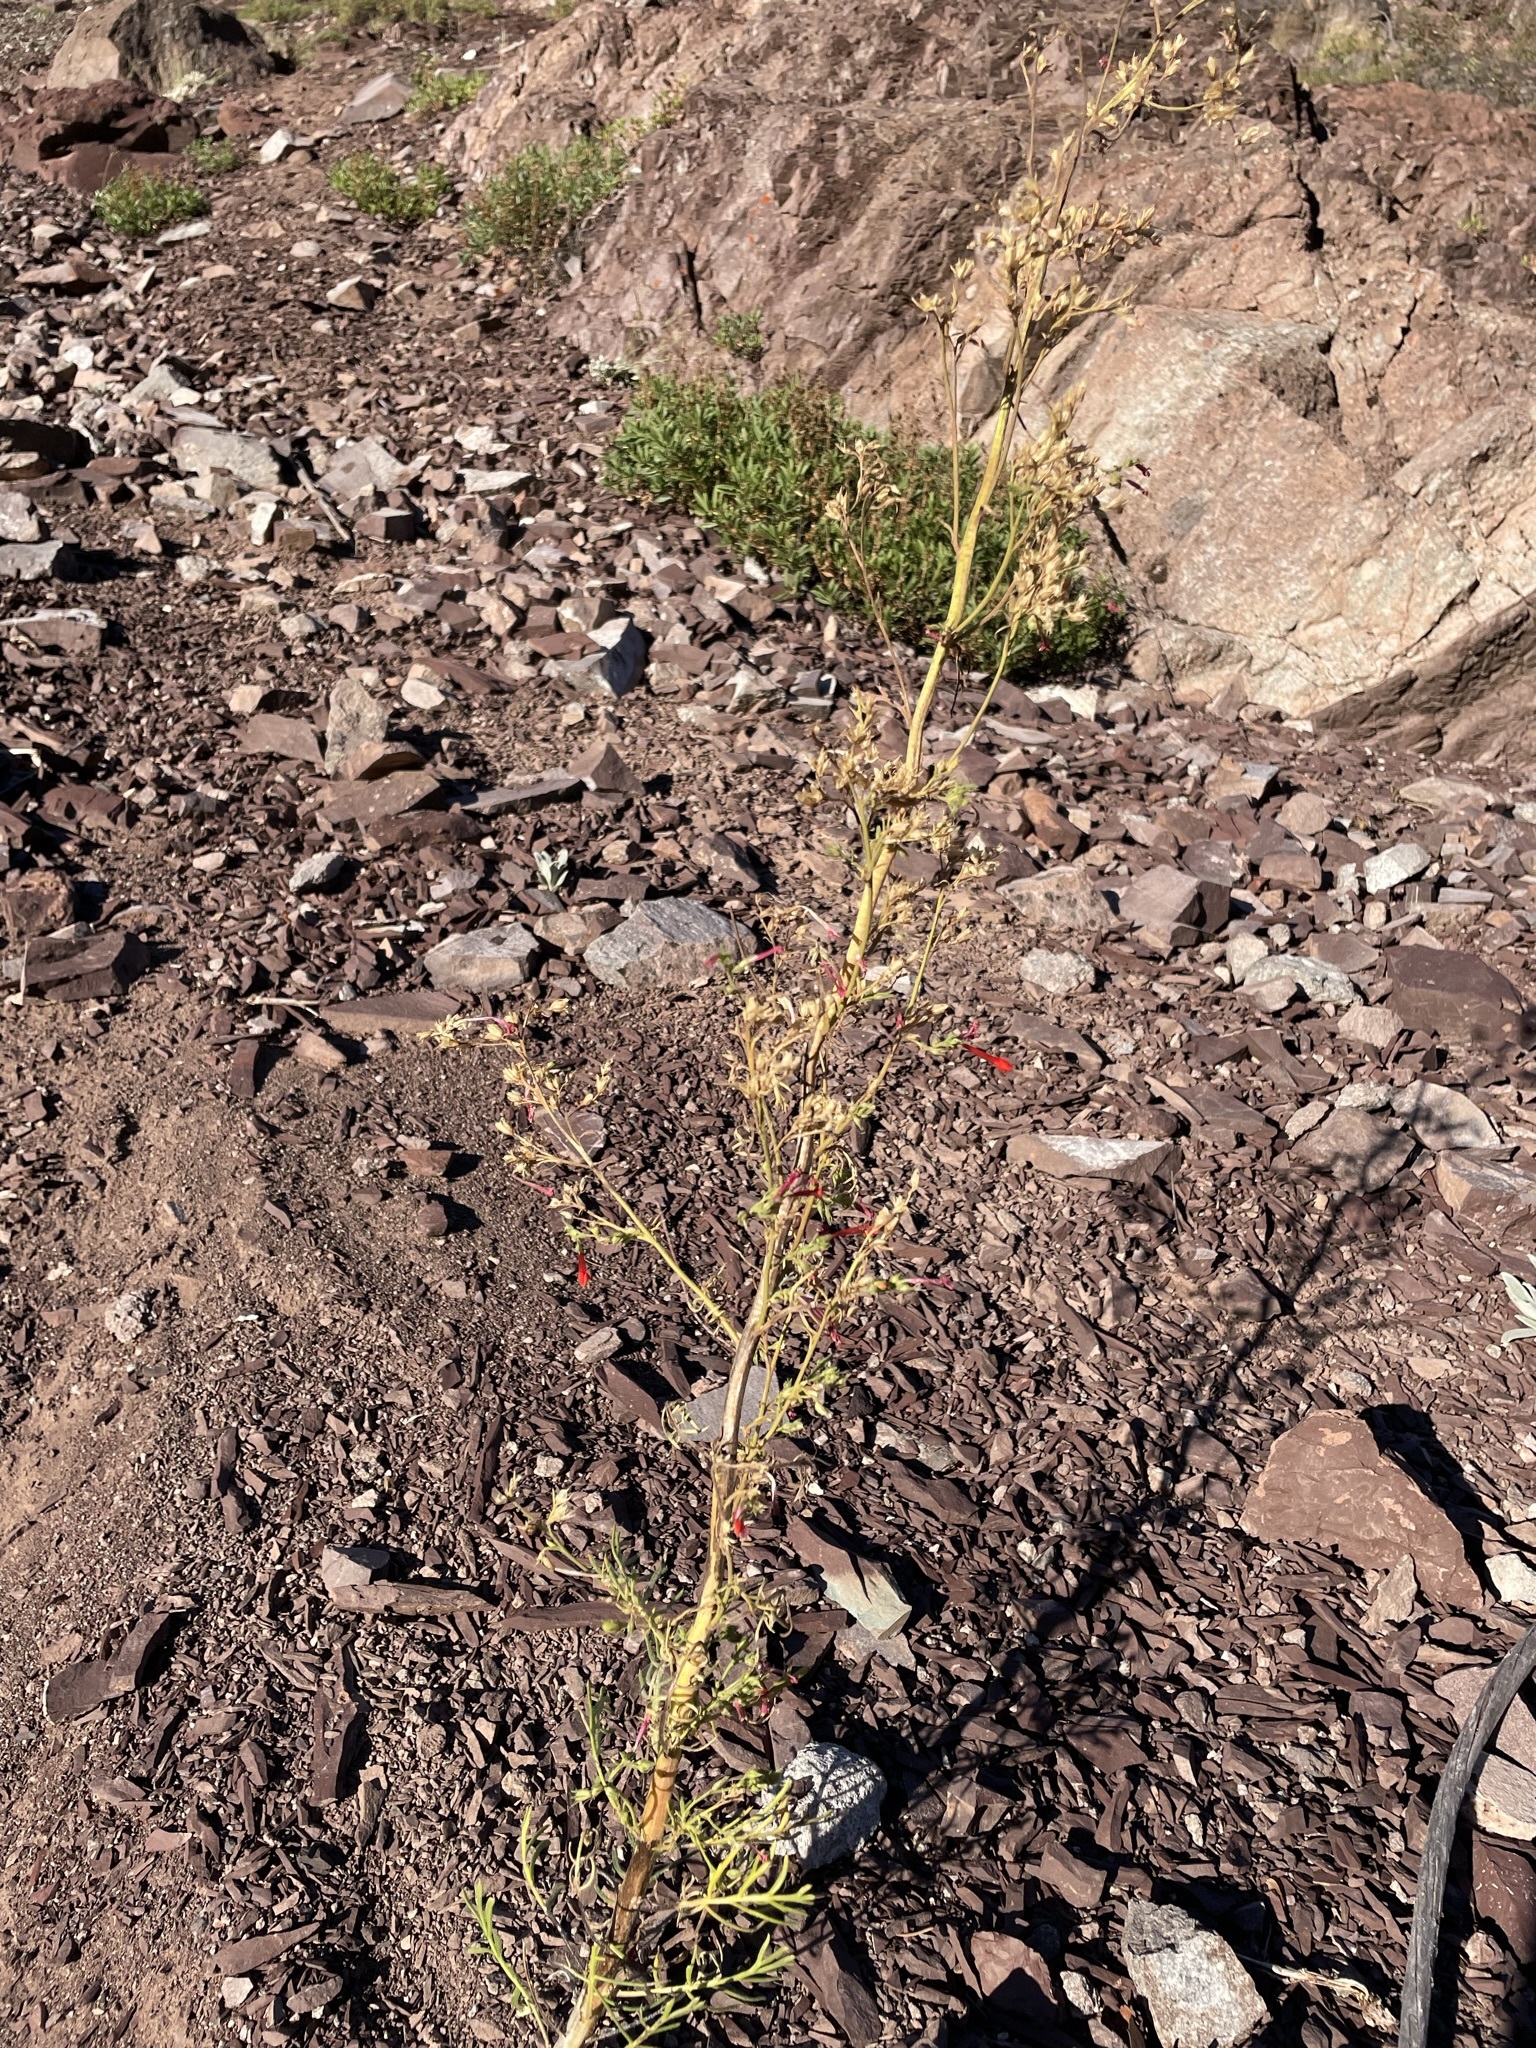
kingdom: Plantae
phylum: Tracheophyta
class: Magnoliopsida
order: Ericales
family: Polemoniaceae
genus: Ipomopsis
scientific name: Ipomopsis aggregata
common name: Scarlet gilia
